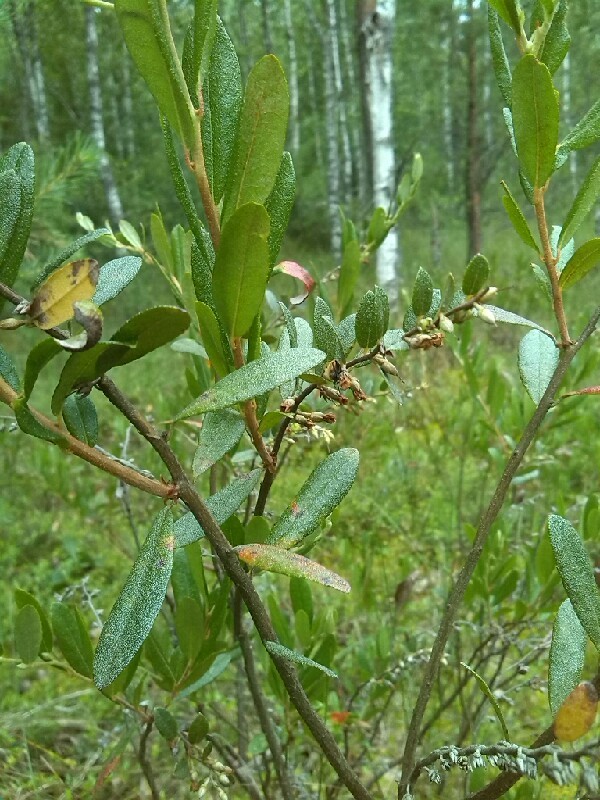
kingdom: Plantae
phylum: Tracheophyta
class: Magnoliopsida
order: Ericales
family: Ericaceae
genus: Chamaedaphne
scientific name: Chamaedaphne calyculata
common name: Leatherleaf
